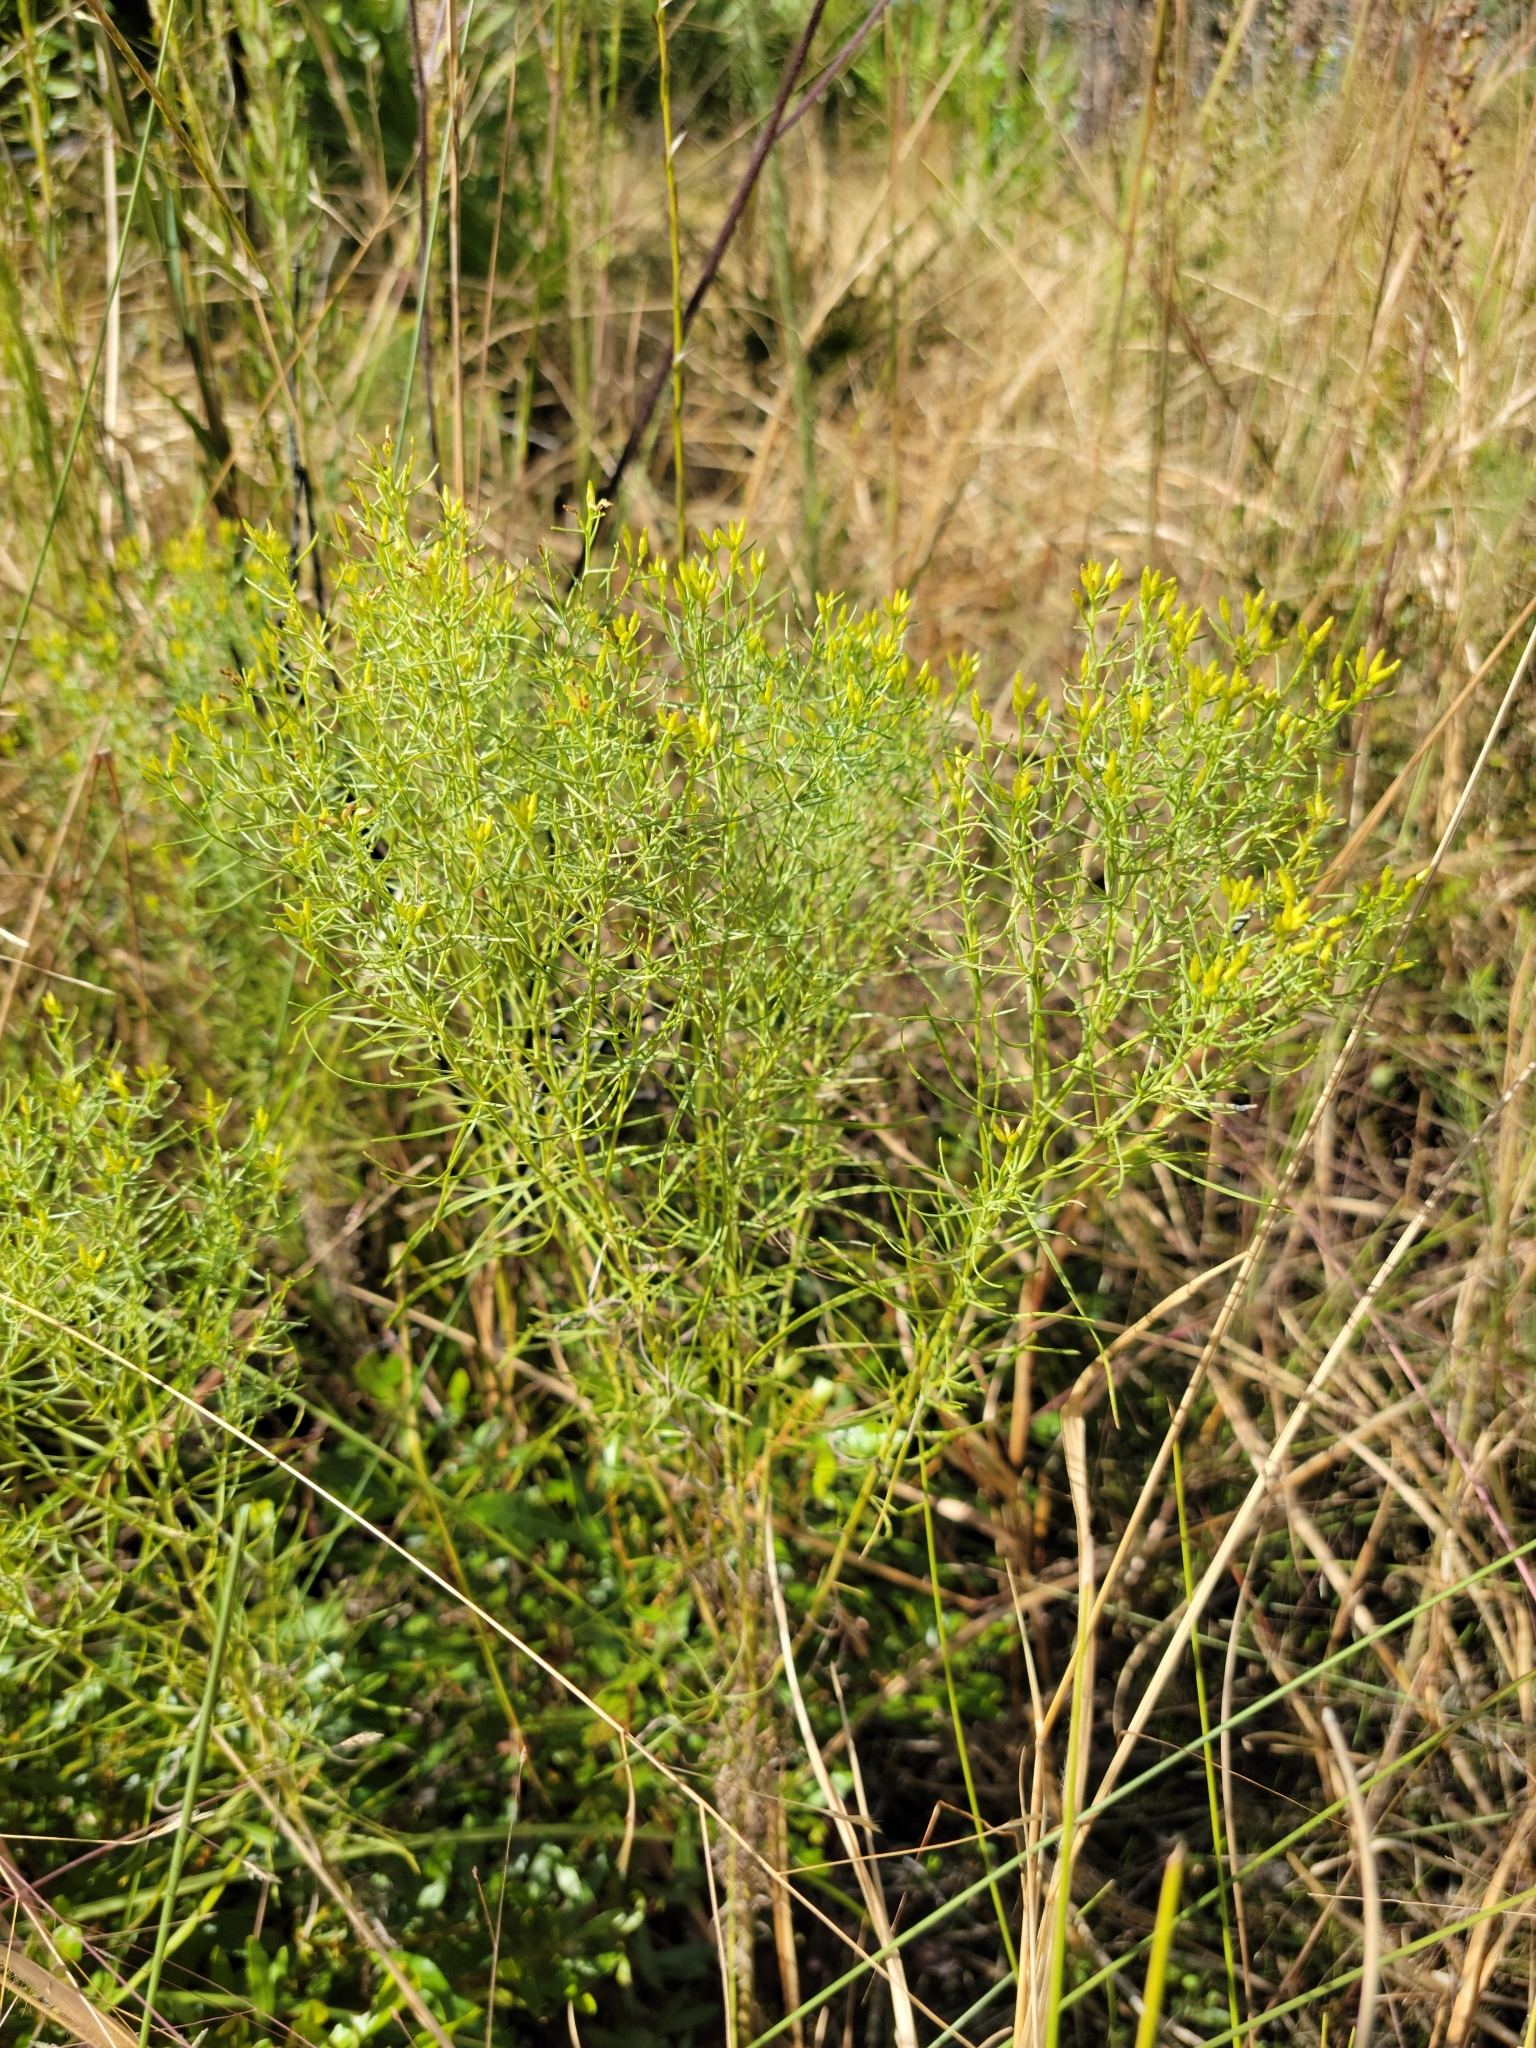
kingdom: Plantae
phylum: Tracheophyta
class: Magnoliopsida
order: Asterales
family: Asteraceae
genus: Euthamia
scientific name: Euthamia caroliniana
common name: Coastal plain goldentop
